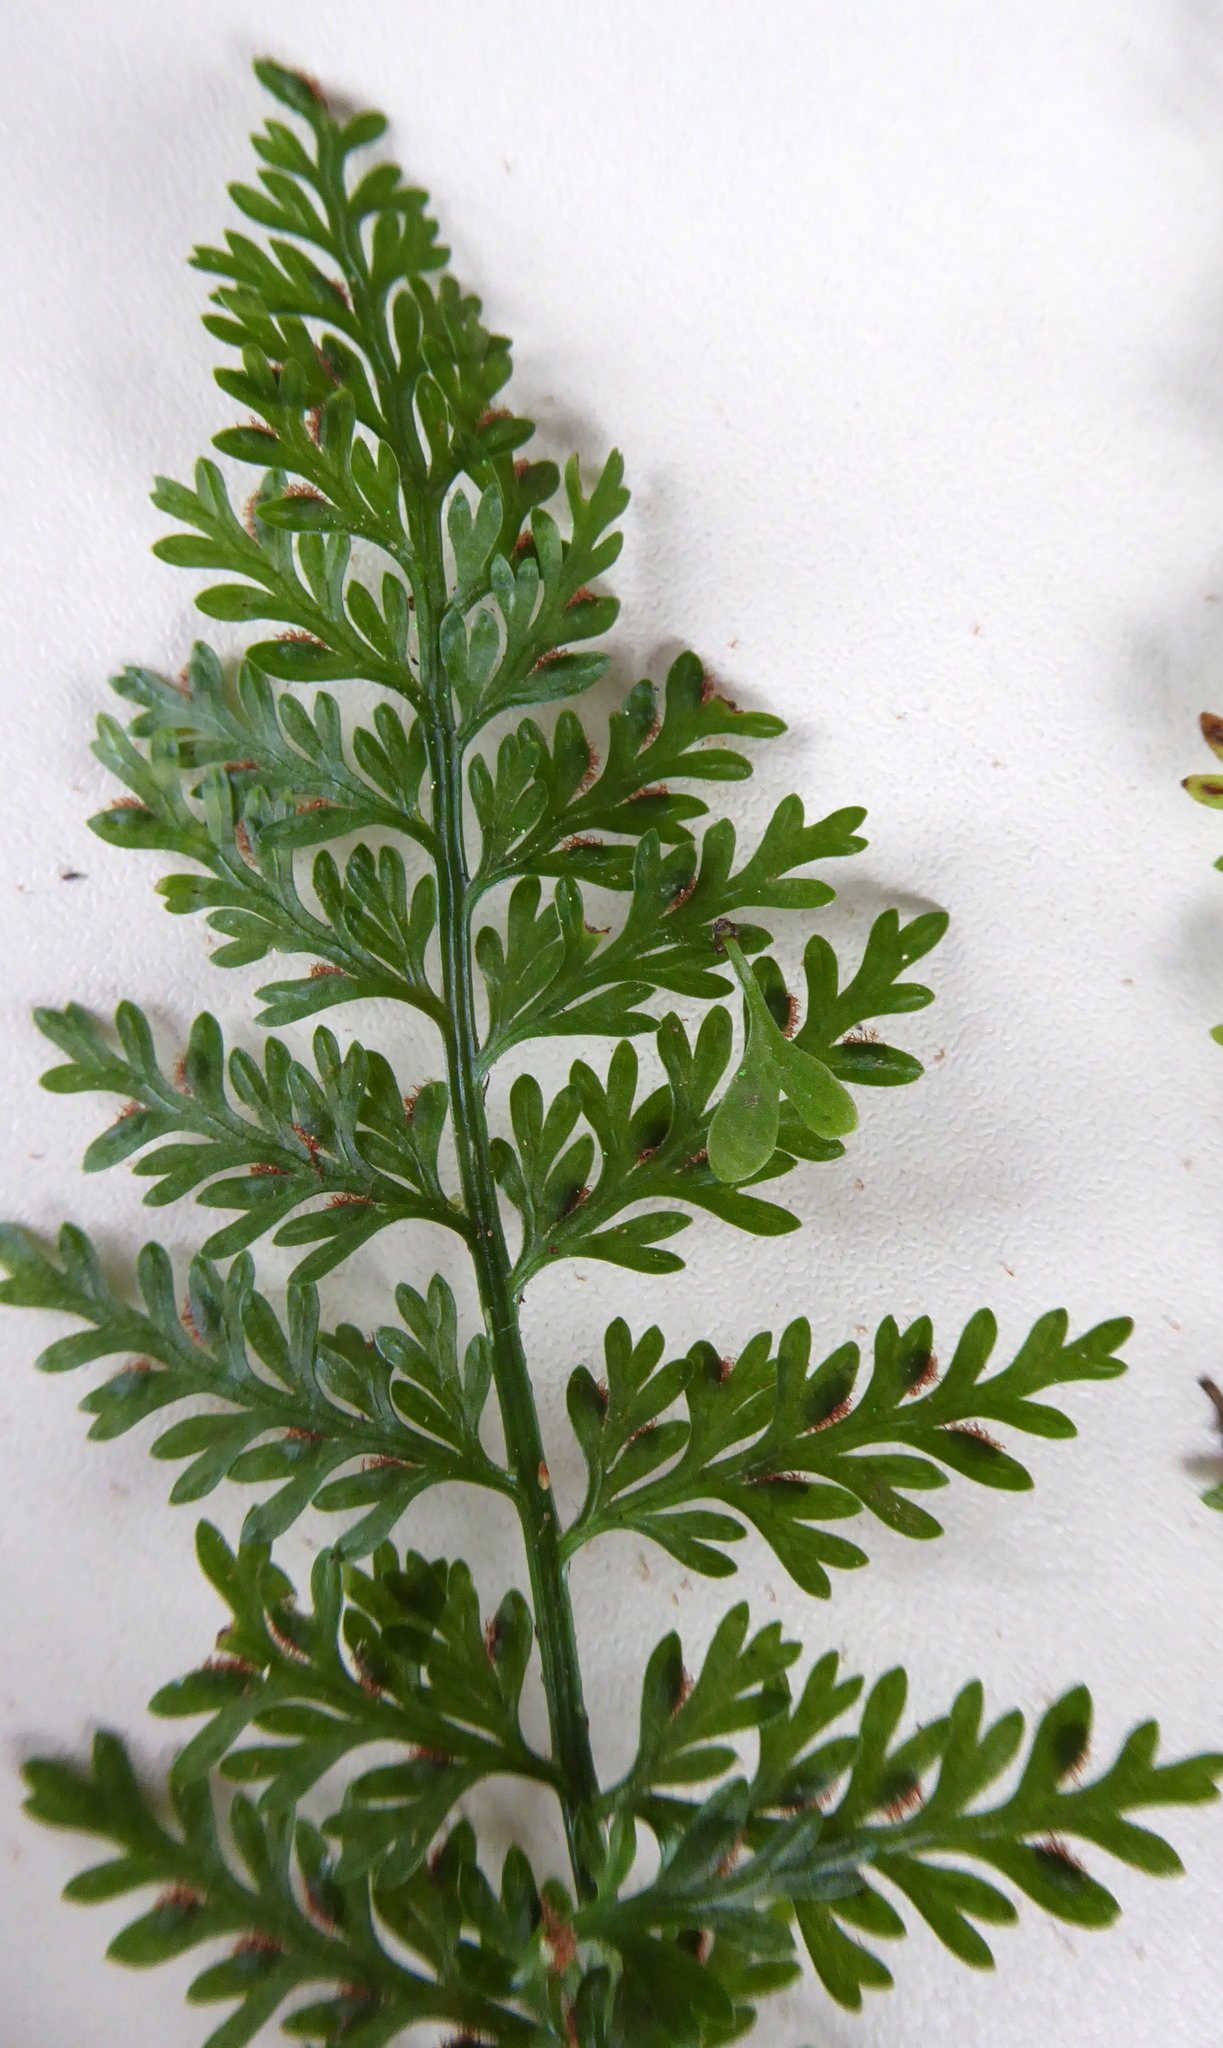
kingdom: Plantae
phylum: Tracheophyta
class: Polypodiopsida
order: Polypodiales
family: Aspleniaceae
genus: Asplenium
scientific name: Asplenium
